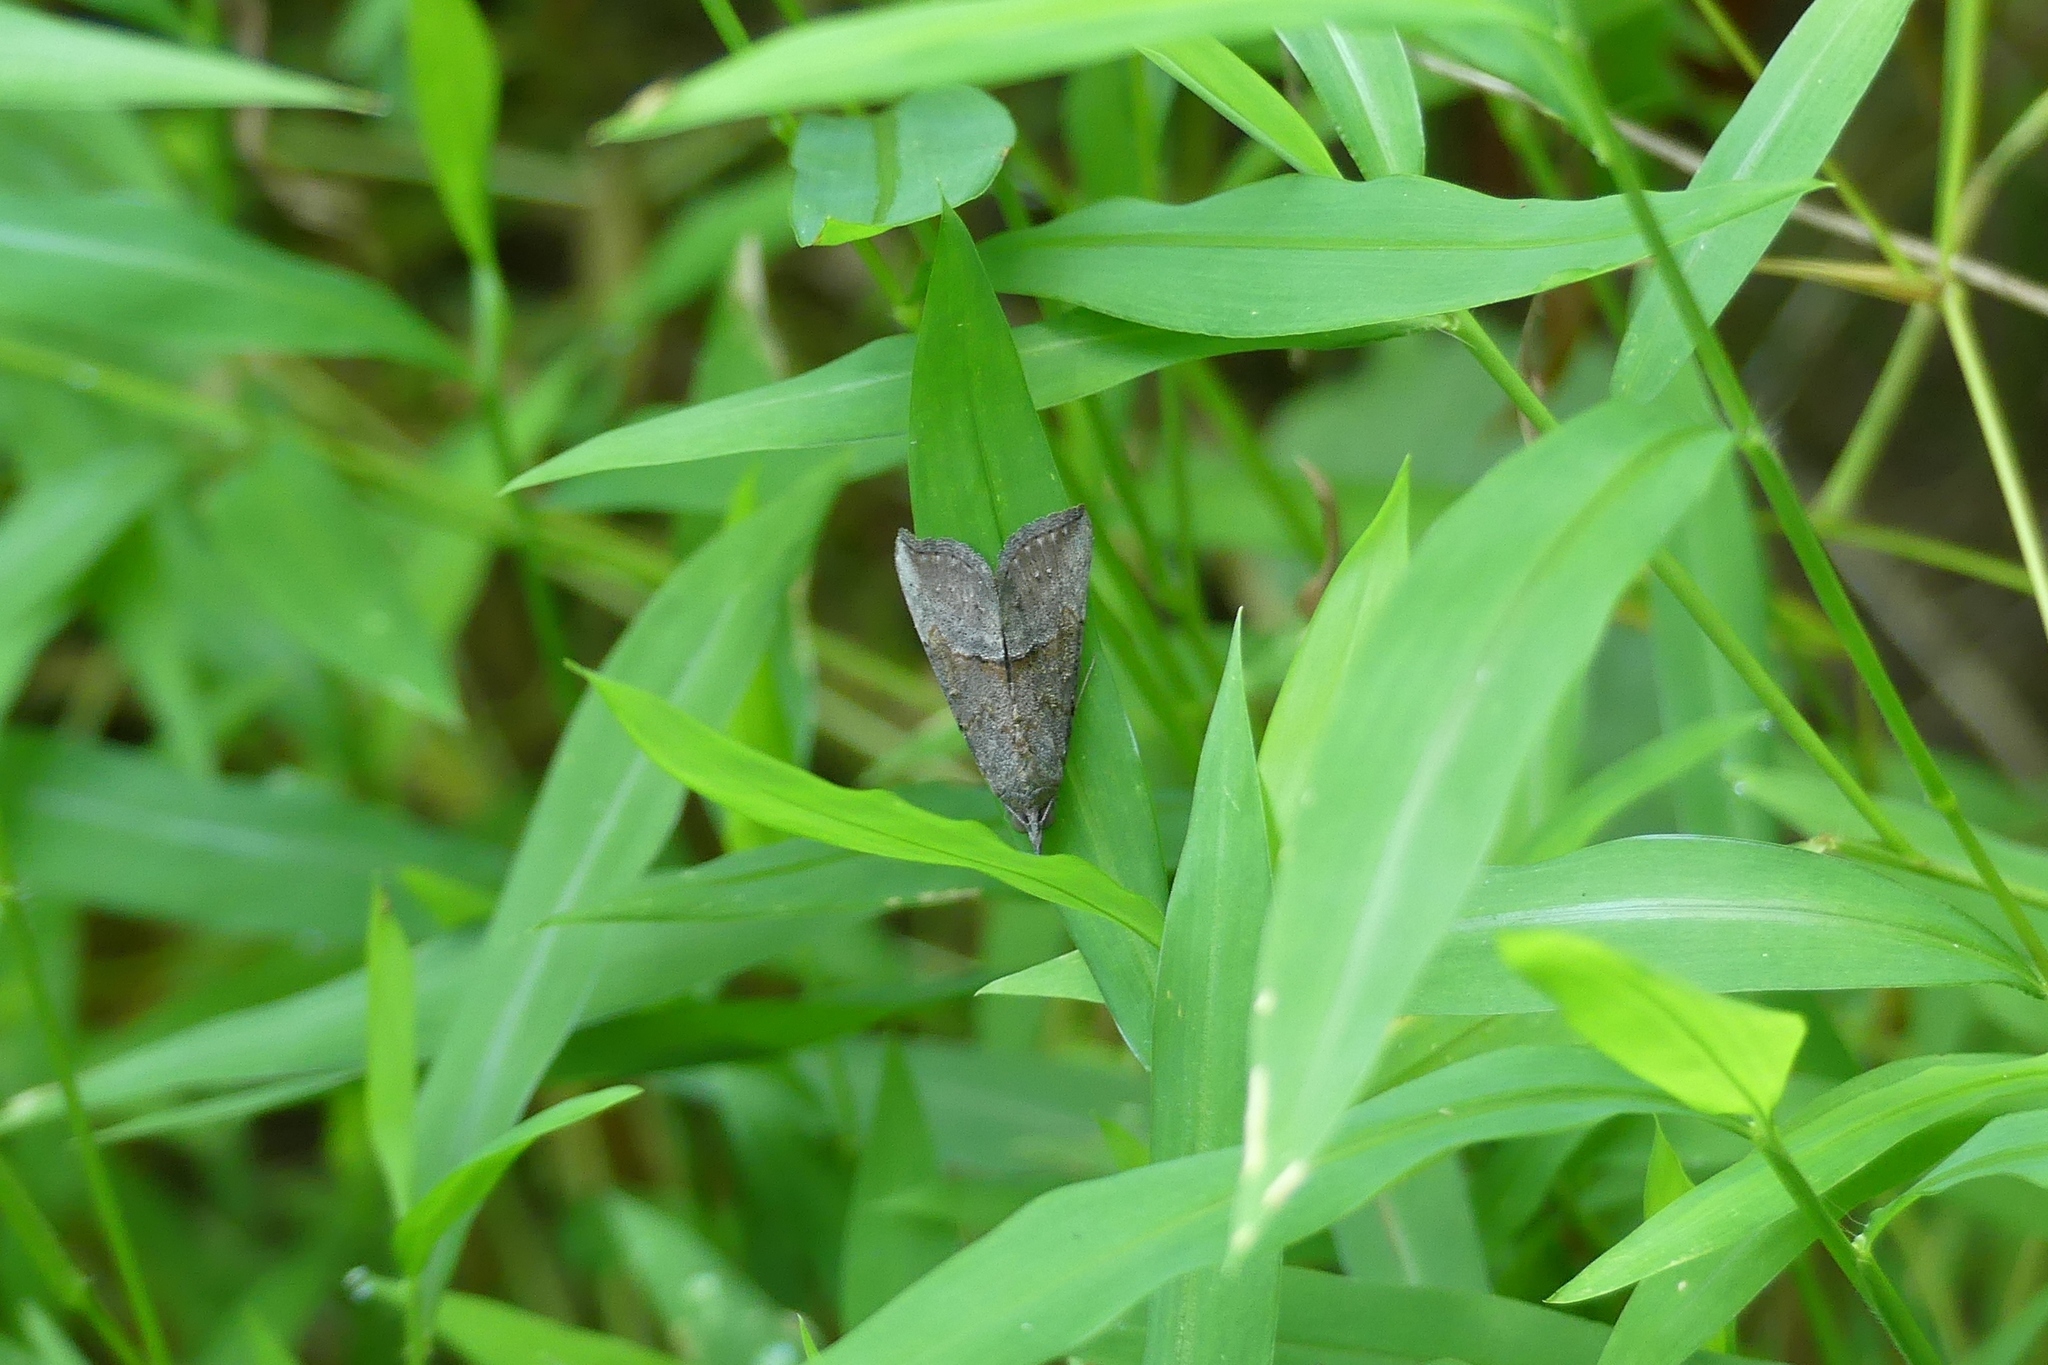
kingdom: Animalia
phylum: Arthropoda
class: Insecta
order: Lepidoptera
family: Erebidae
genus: Hypena
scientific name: Hypena scabra
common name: Green cloverworm
